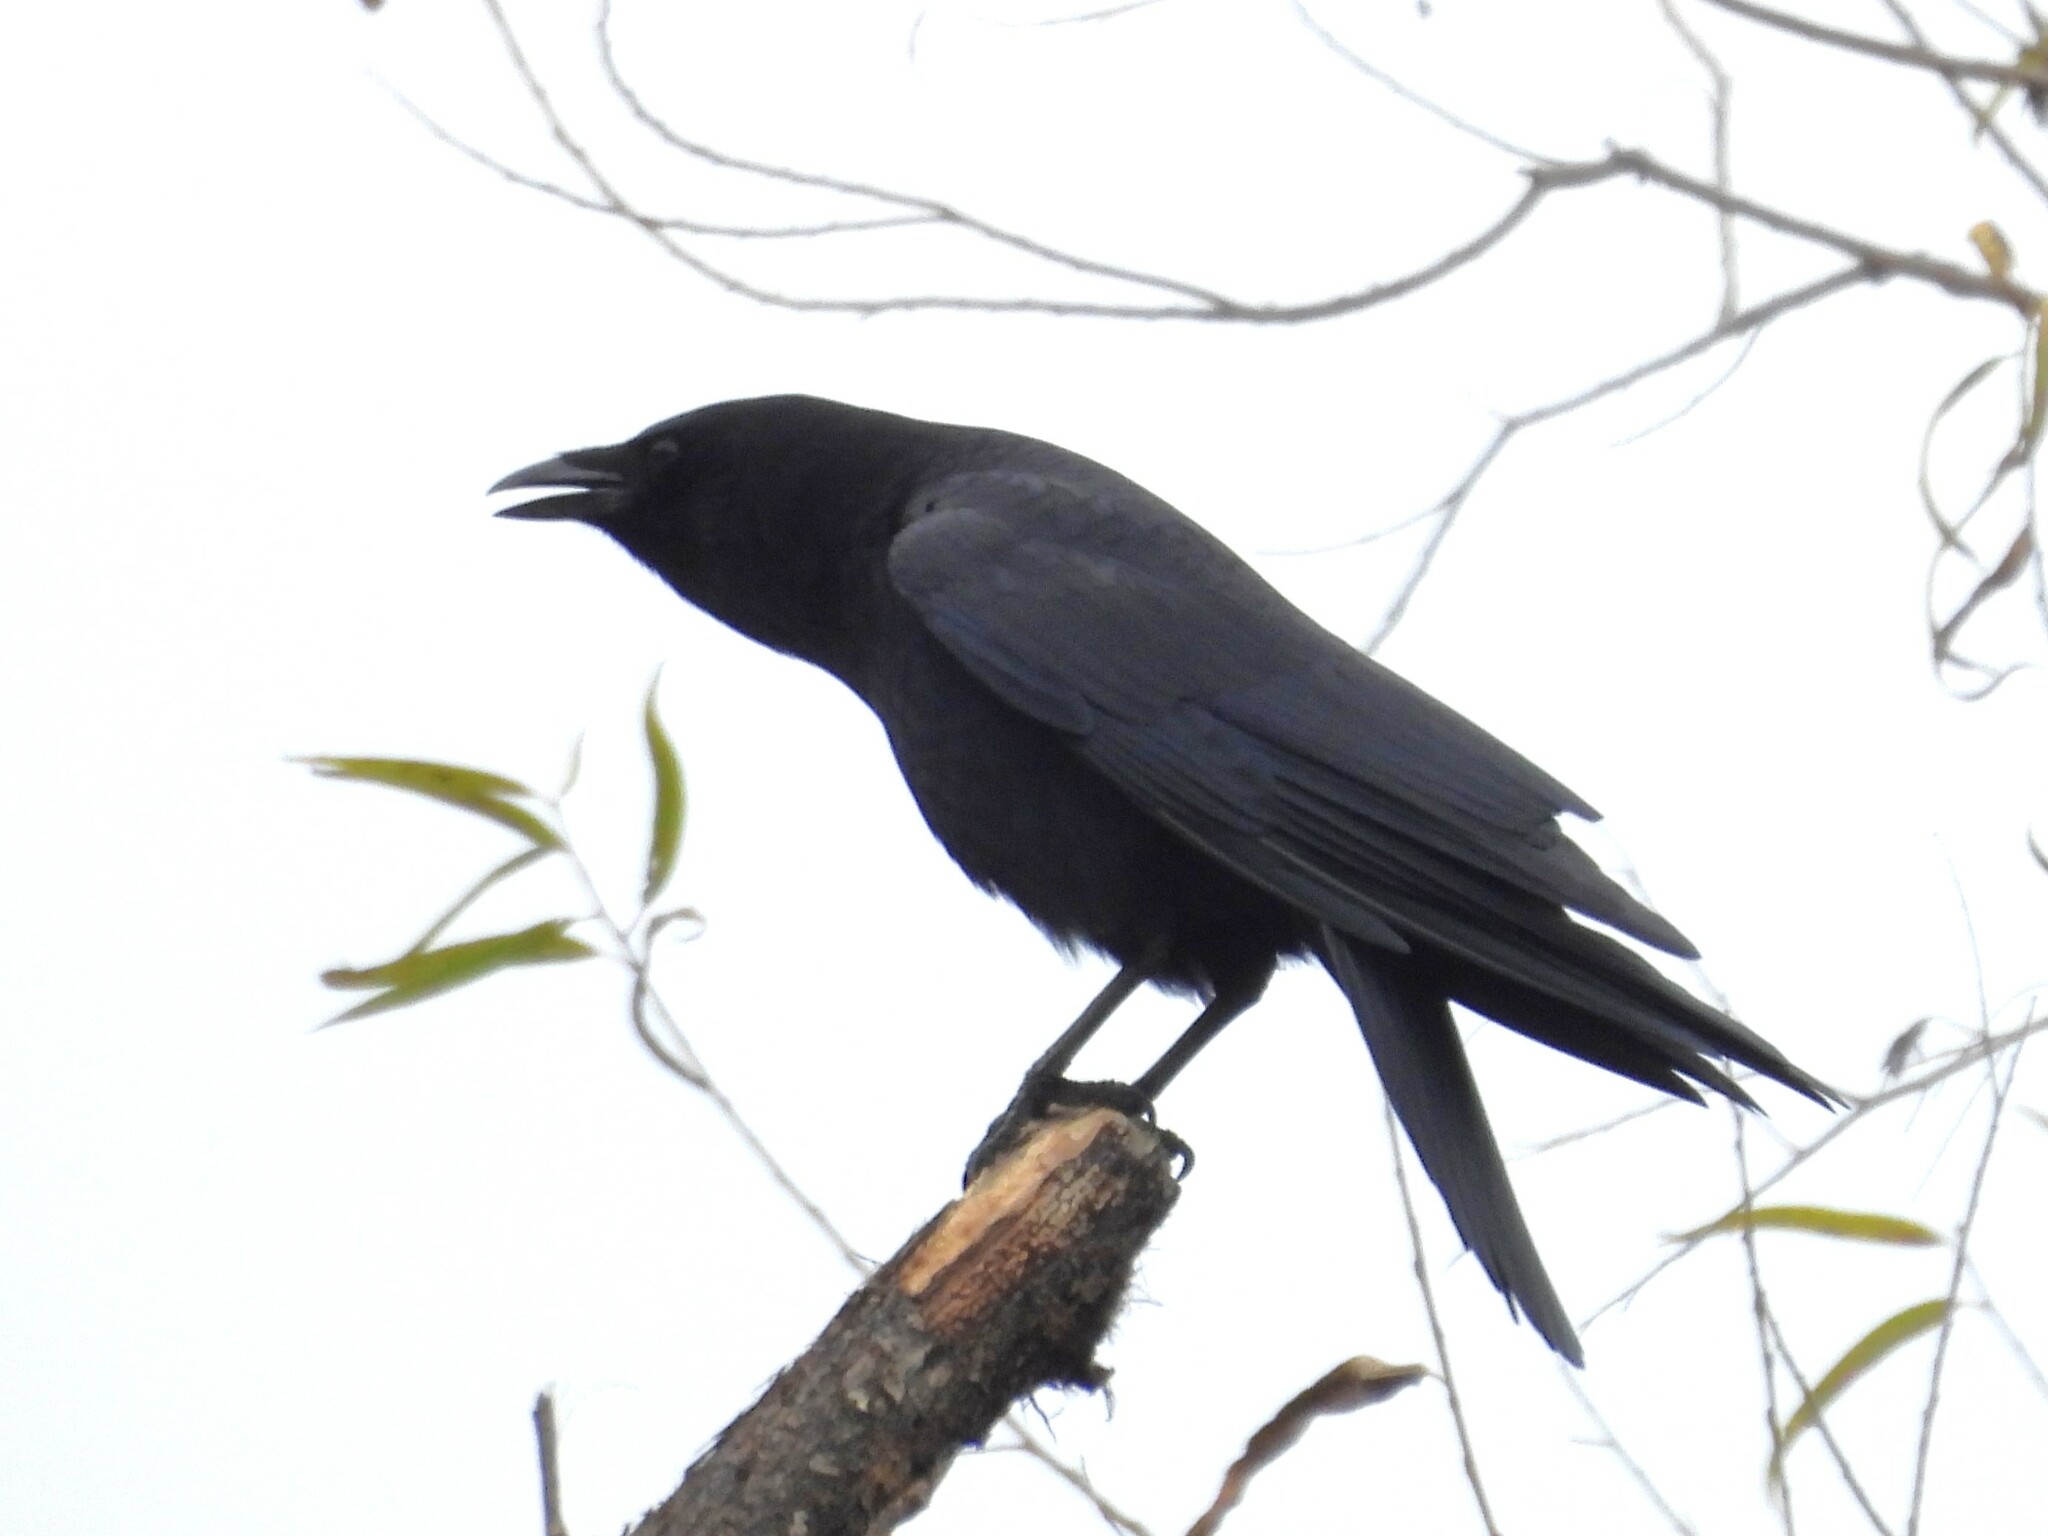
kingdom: Animalia
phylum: Chordata
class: Aves
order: Passeriformes
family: Corvidae
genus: Corvus
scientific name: Corvus brachyrhynchos
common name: American crow
